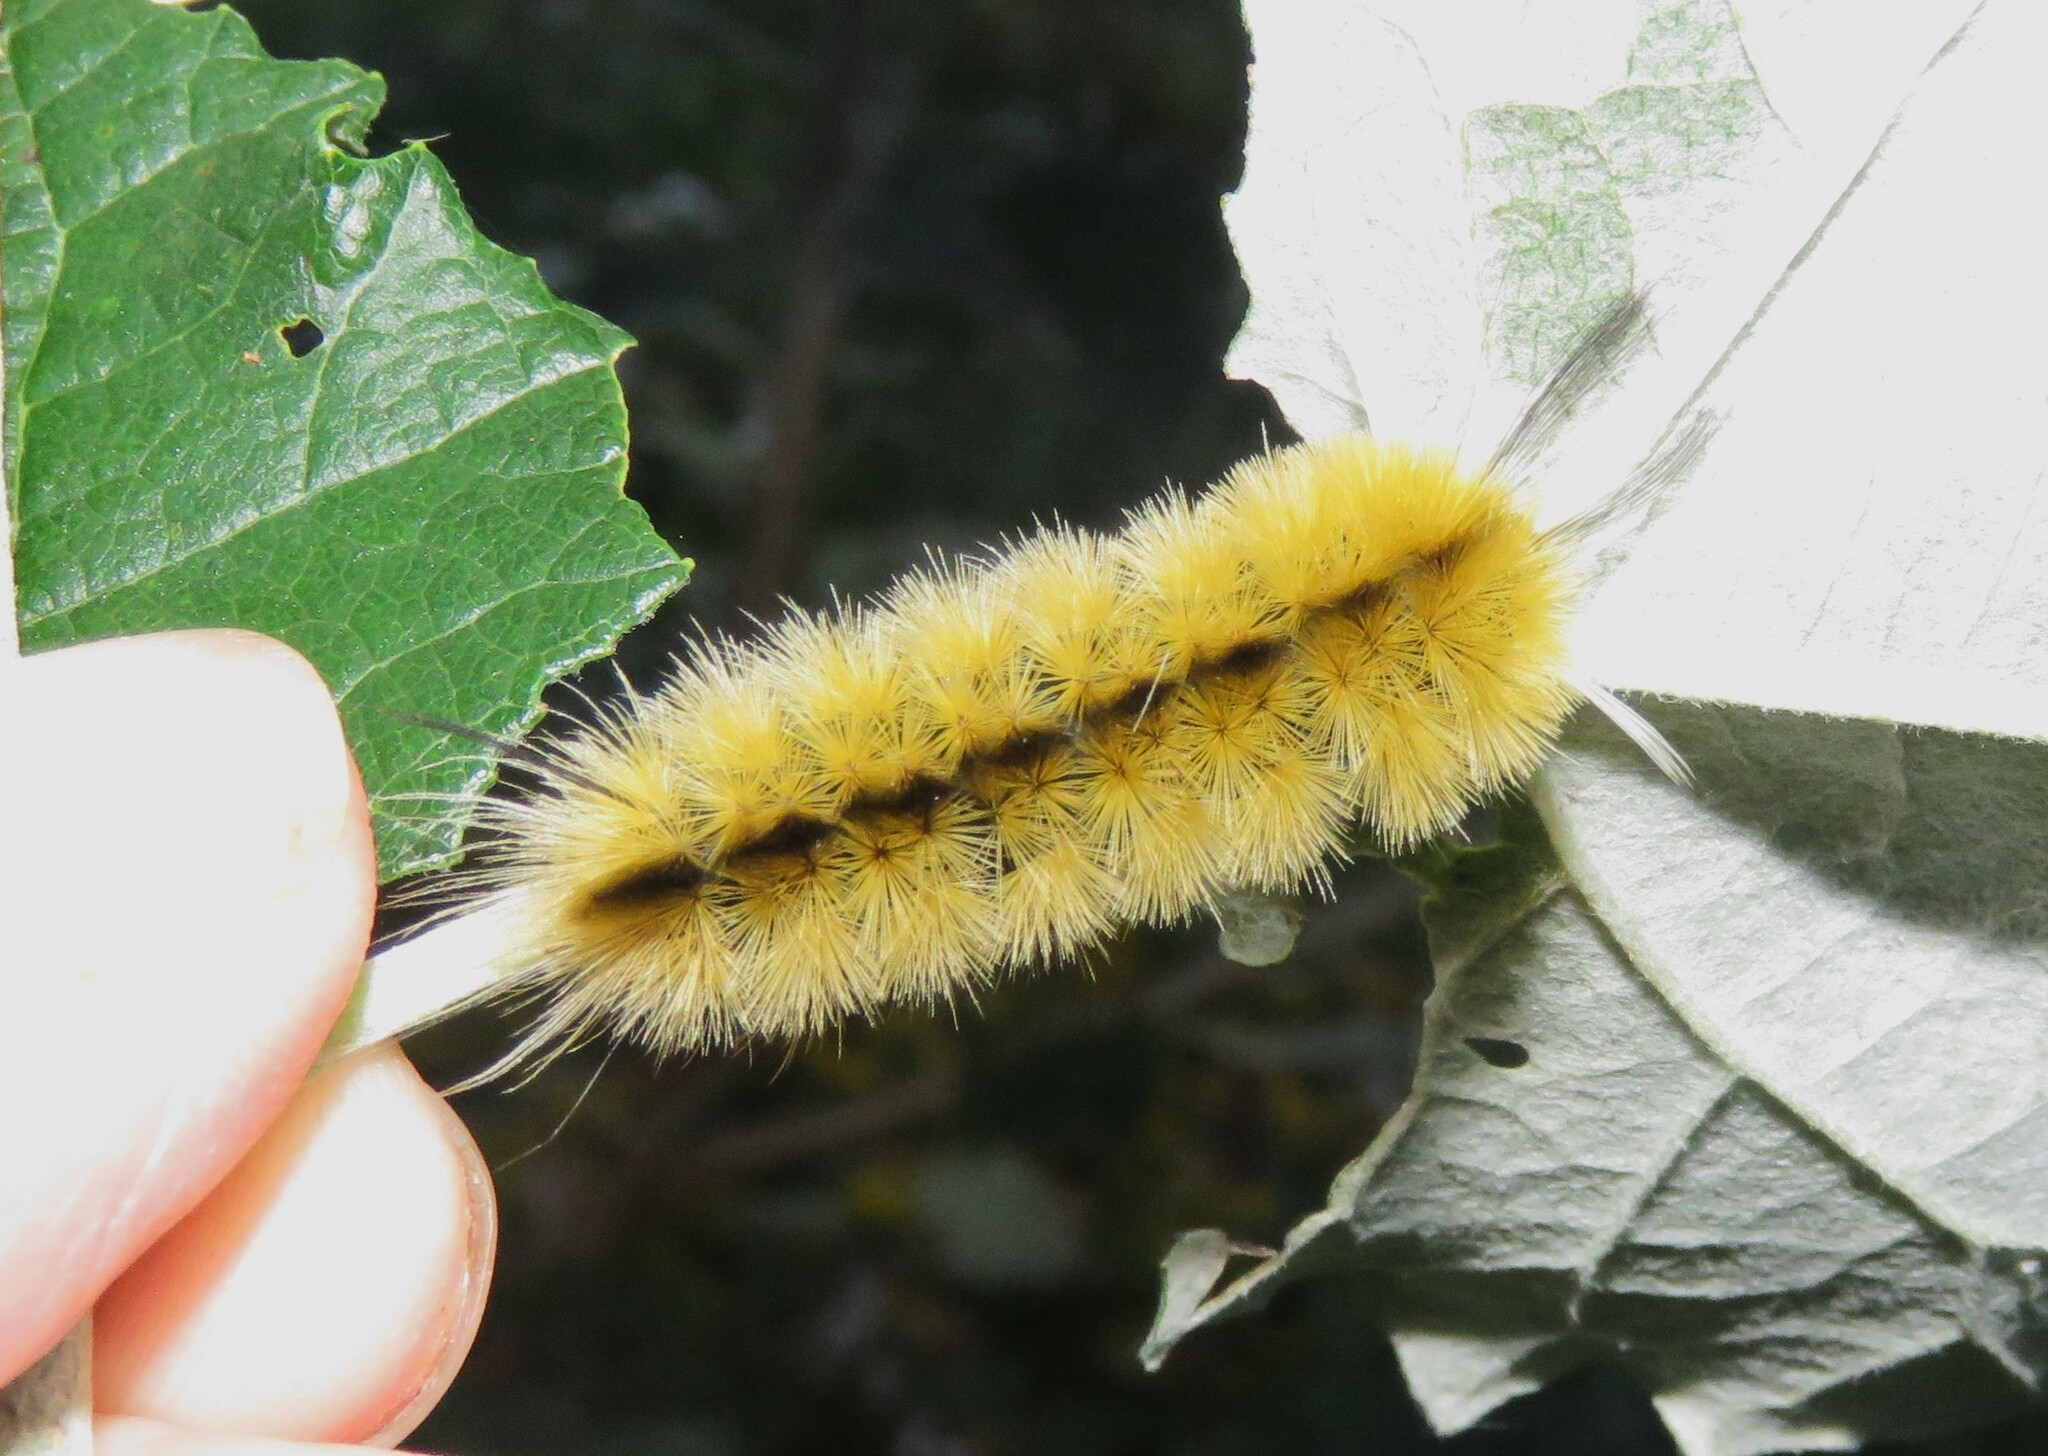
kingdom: Animalia
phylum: Arthropoda
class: Insecta
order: Lepidoptera
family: Erebidae
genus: Halysidota
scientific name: Halysidota tessellaris
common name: Banded tussock moth
